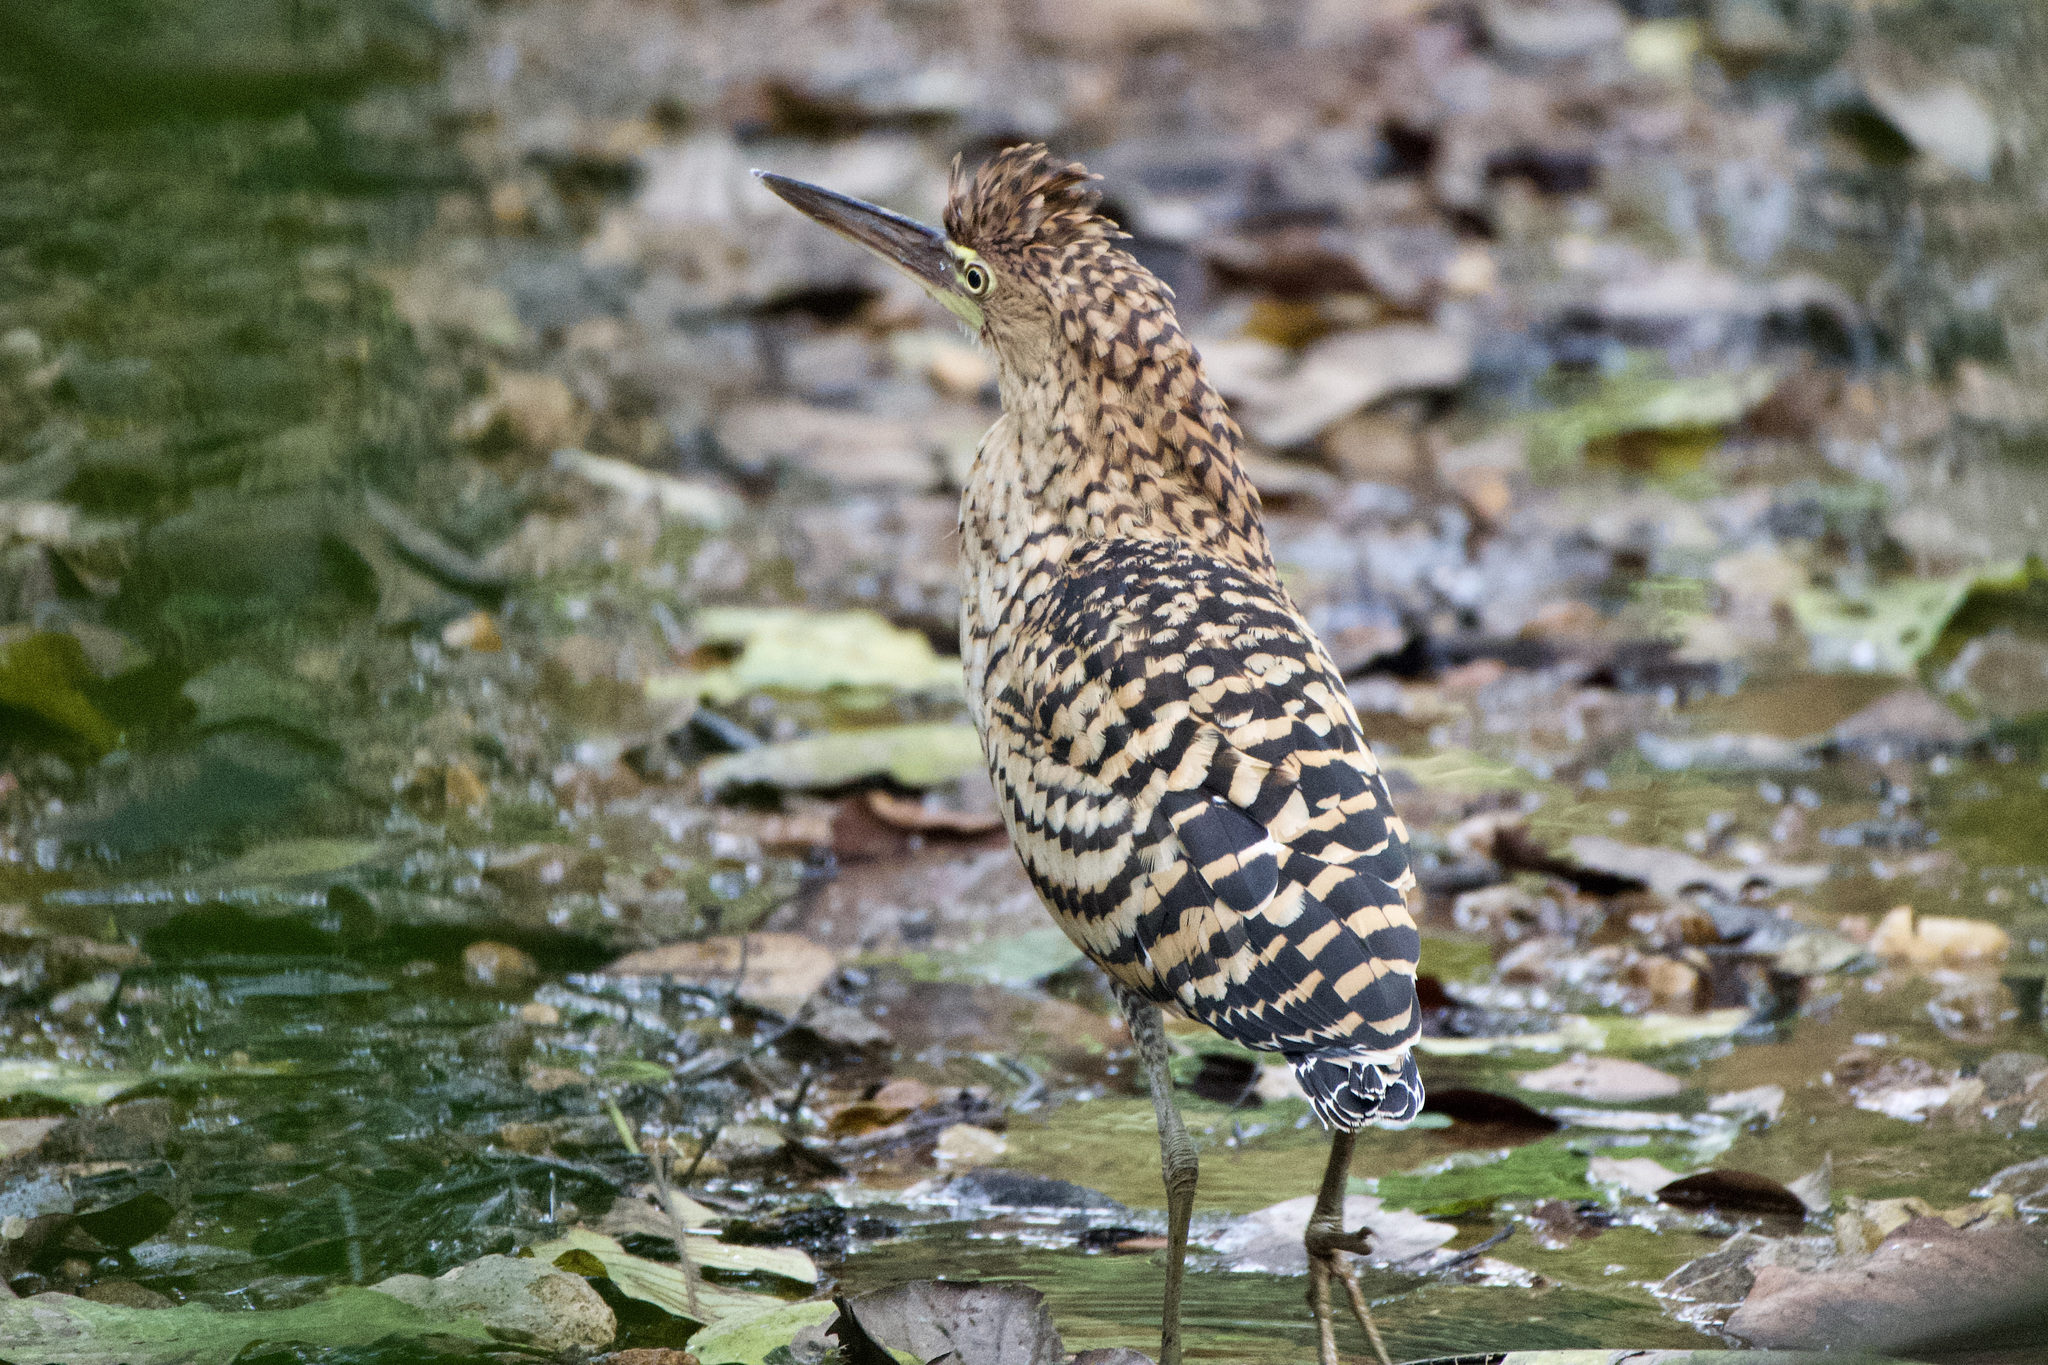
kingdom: Animalia
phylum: Chordata
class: Aves
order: Pelecaniformes
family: Ardeidae
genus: Tigrisoma
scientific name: Tigrisoma lineatum
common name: Rufescent tiger-heron
